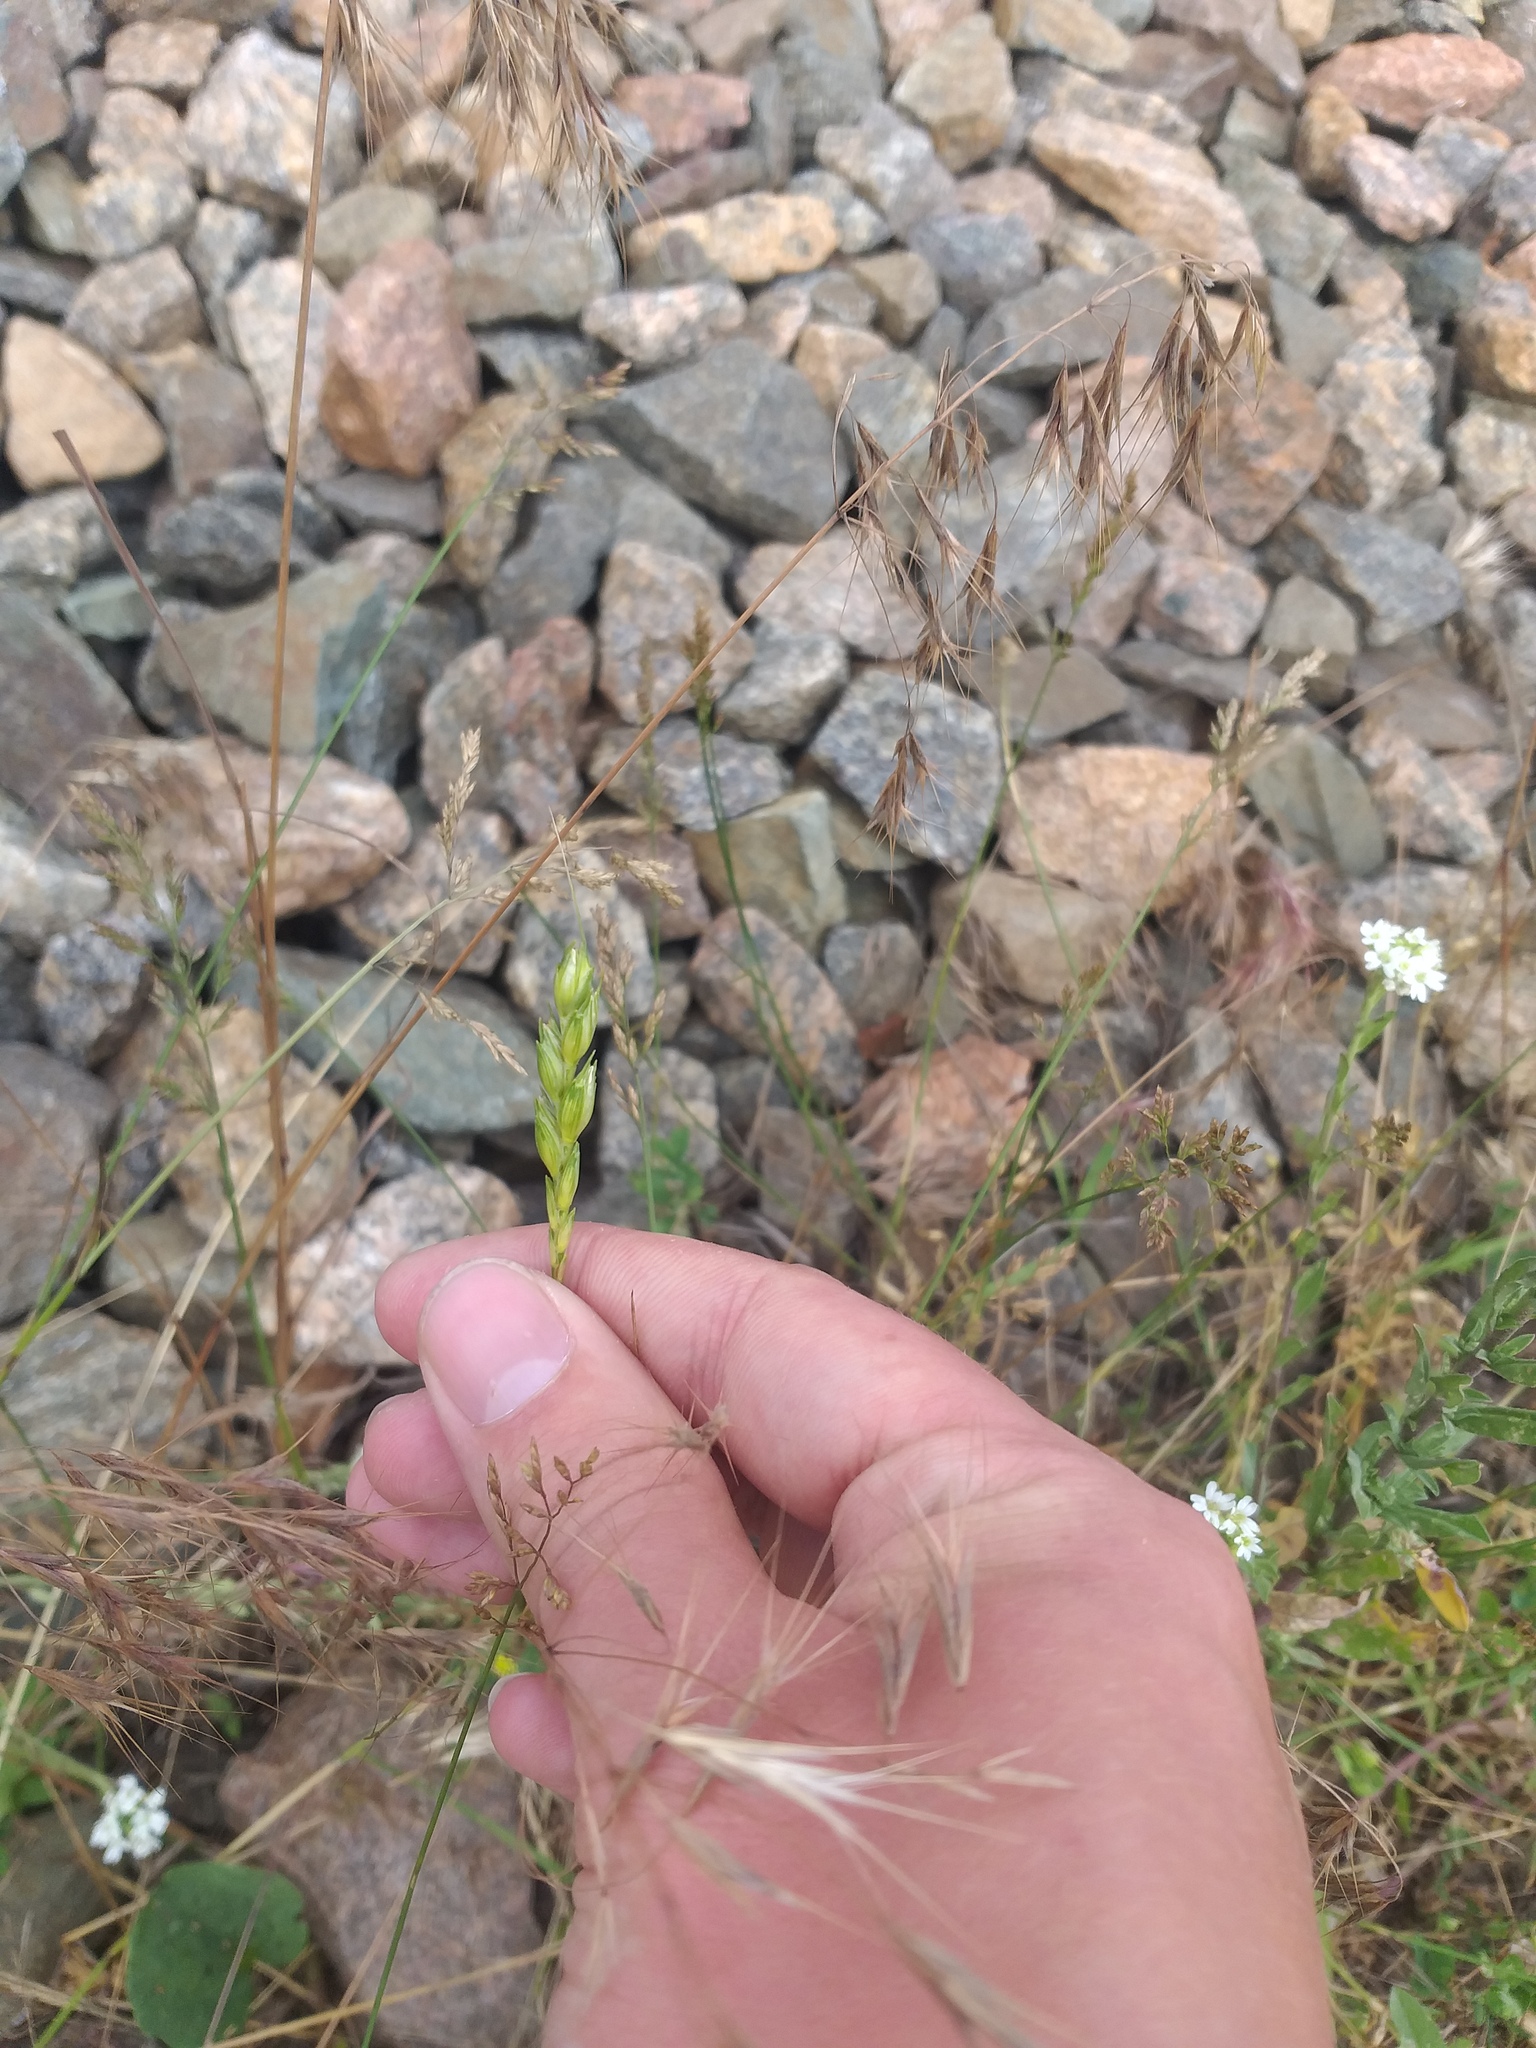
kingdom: Plantae
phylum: Tracheophyta
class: Liliopsida
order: Poales
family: Poaceae
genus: Triticum
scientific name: Triticum aestivum
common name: Common wheat
